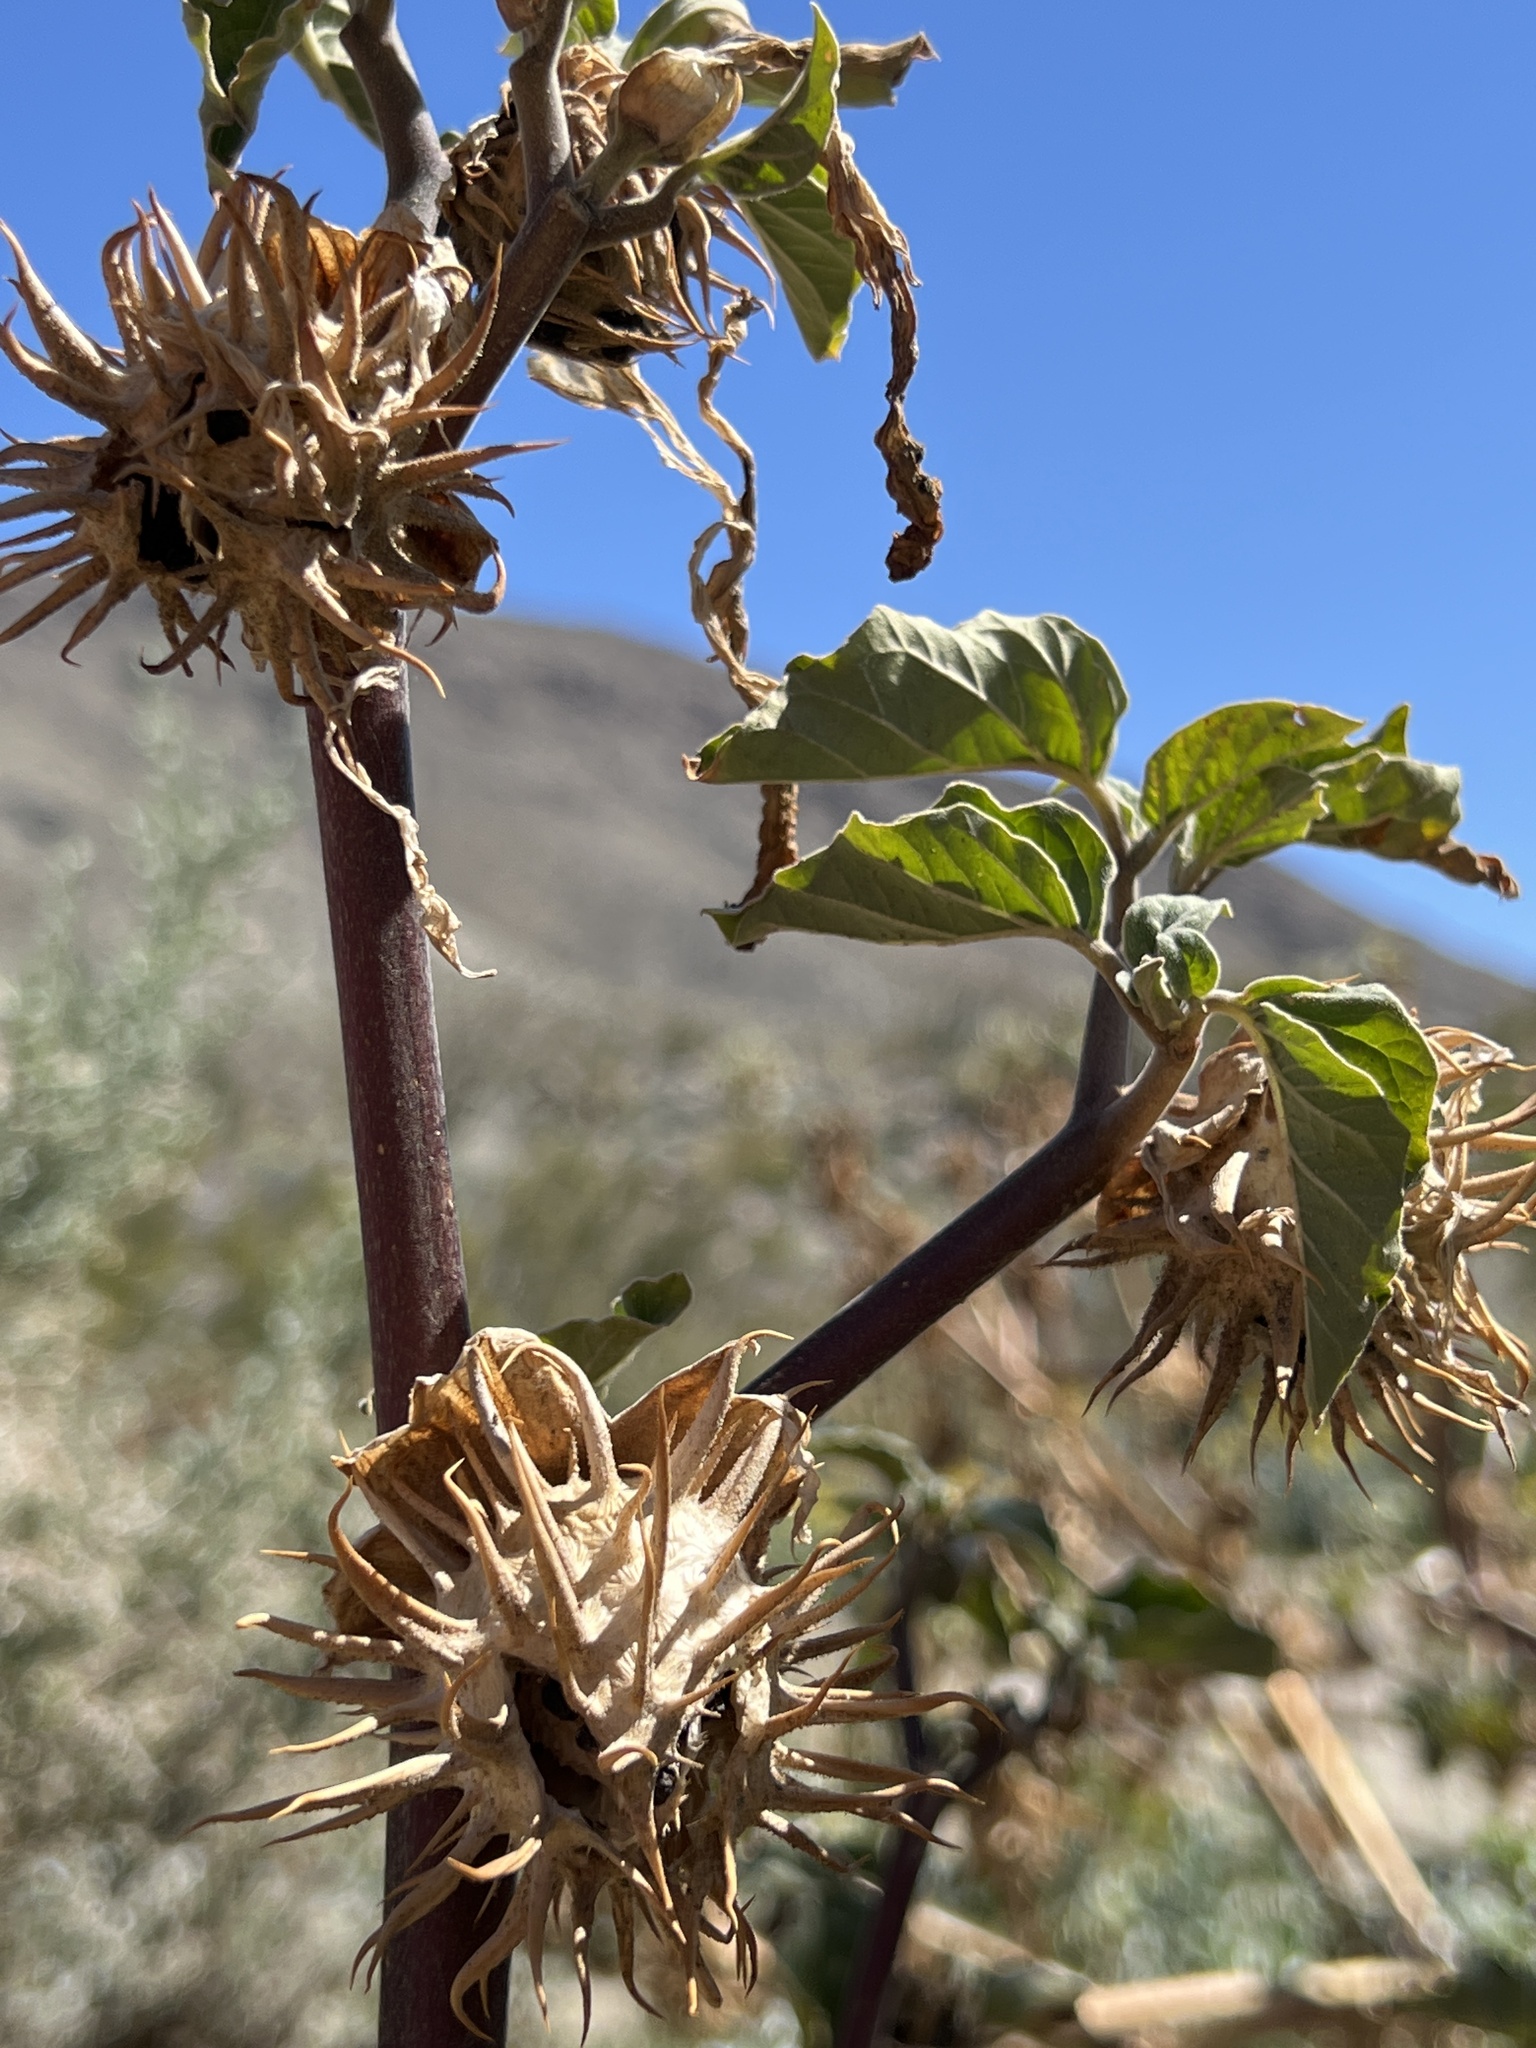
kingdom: Plantae
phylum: Tracheophyta
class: Magnoliopsida
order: Solanales
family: Solanaceae
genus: Datura
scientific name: Datura discolor
